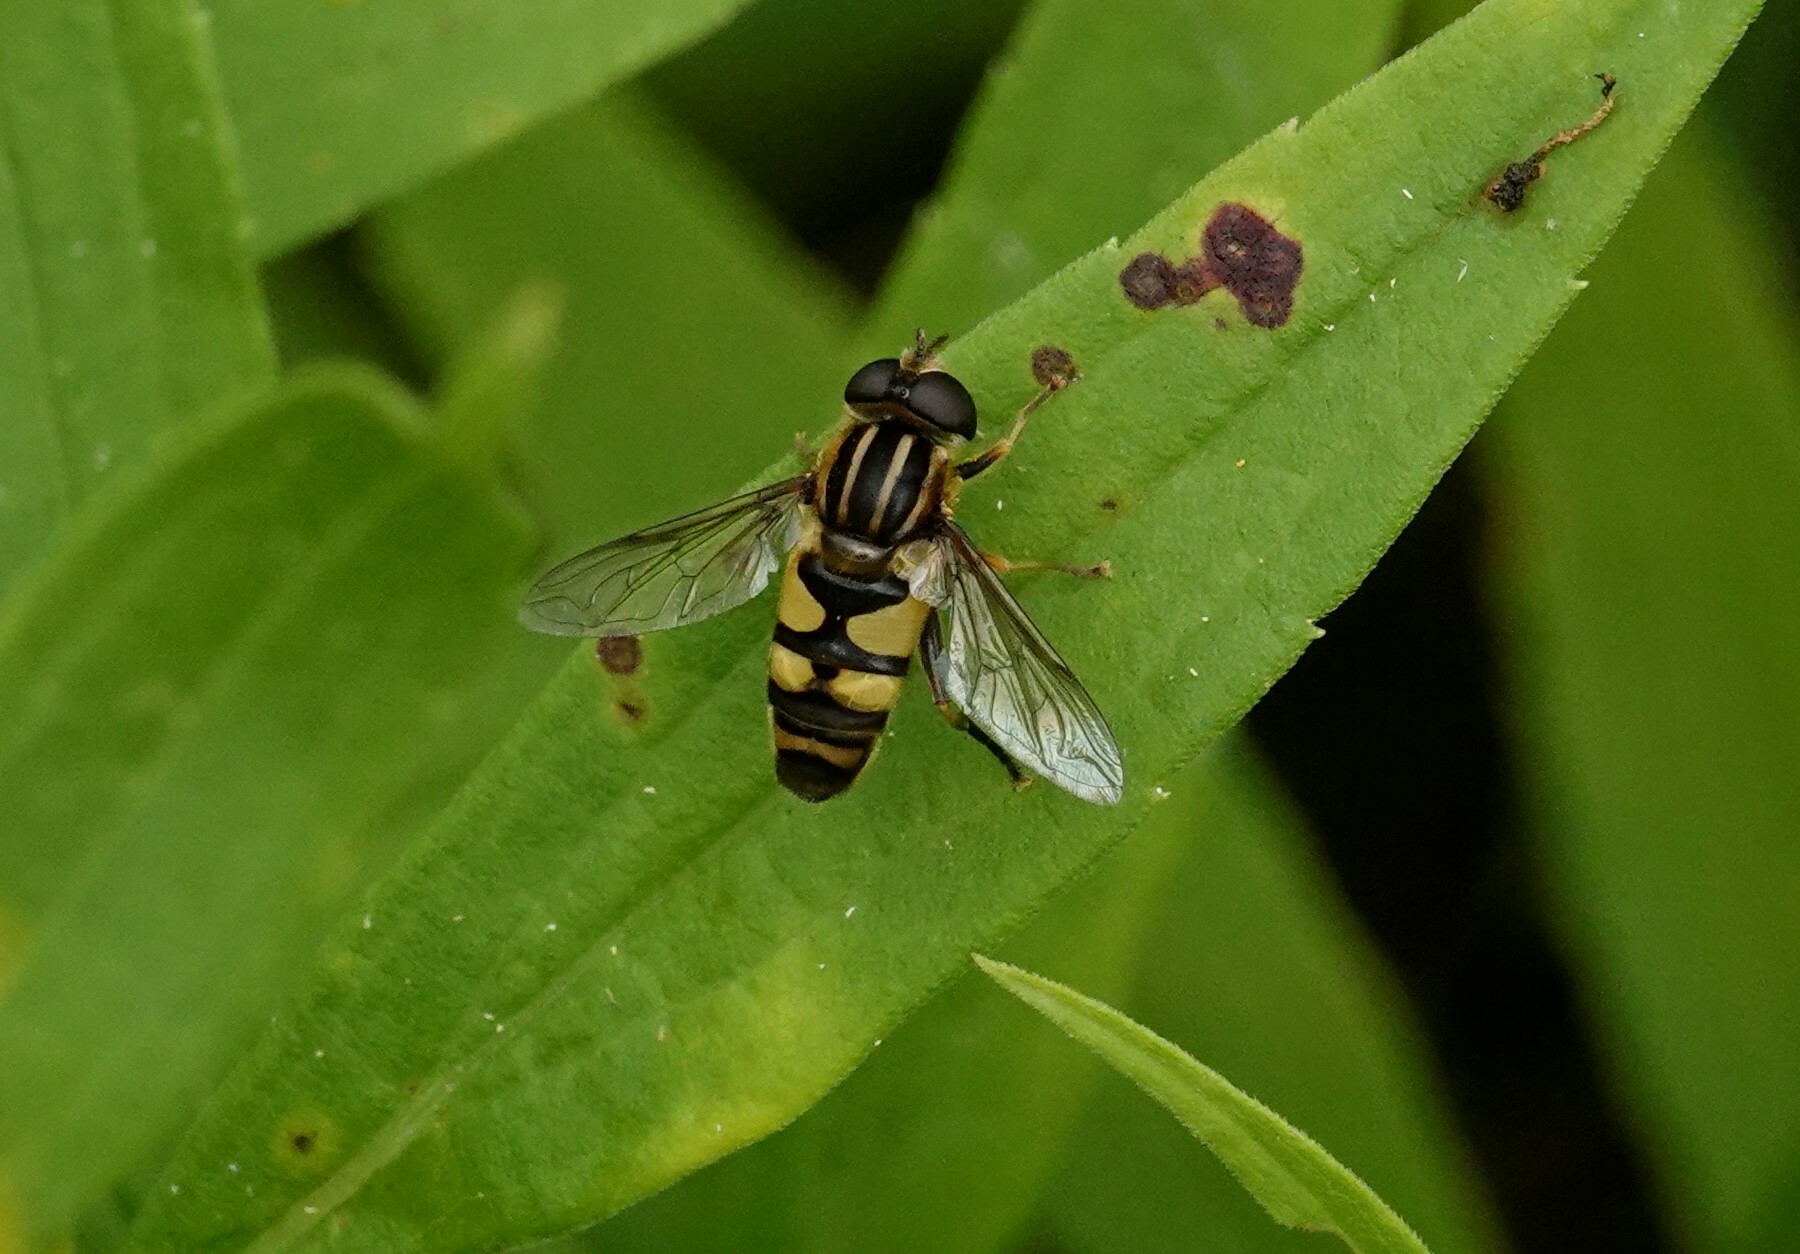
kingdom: Animalia
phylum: Arthropoda
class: Insecta
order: Diptera
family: Syrphidae
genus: Helophilus
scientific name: Helophilus fasciatus
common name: Narrow-headed marsh fly
